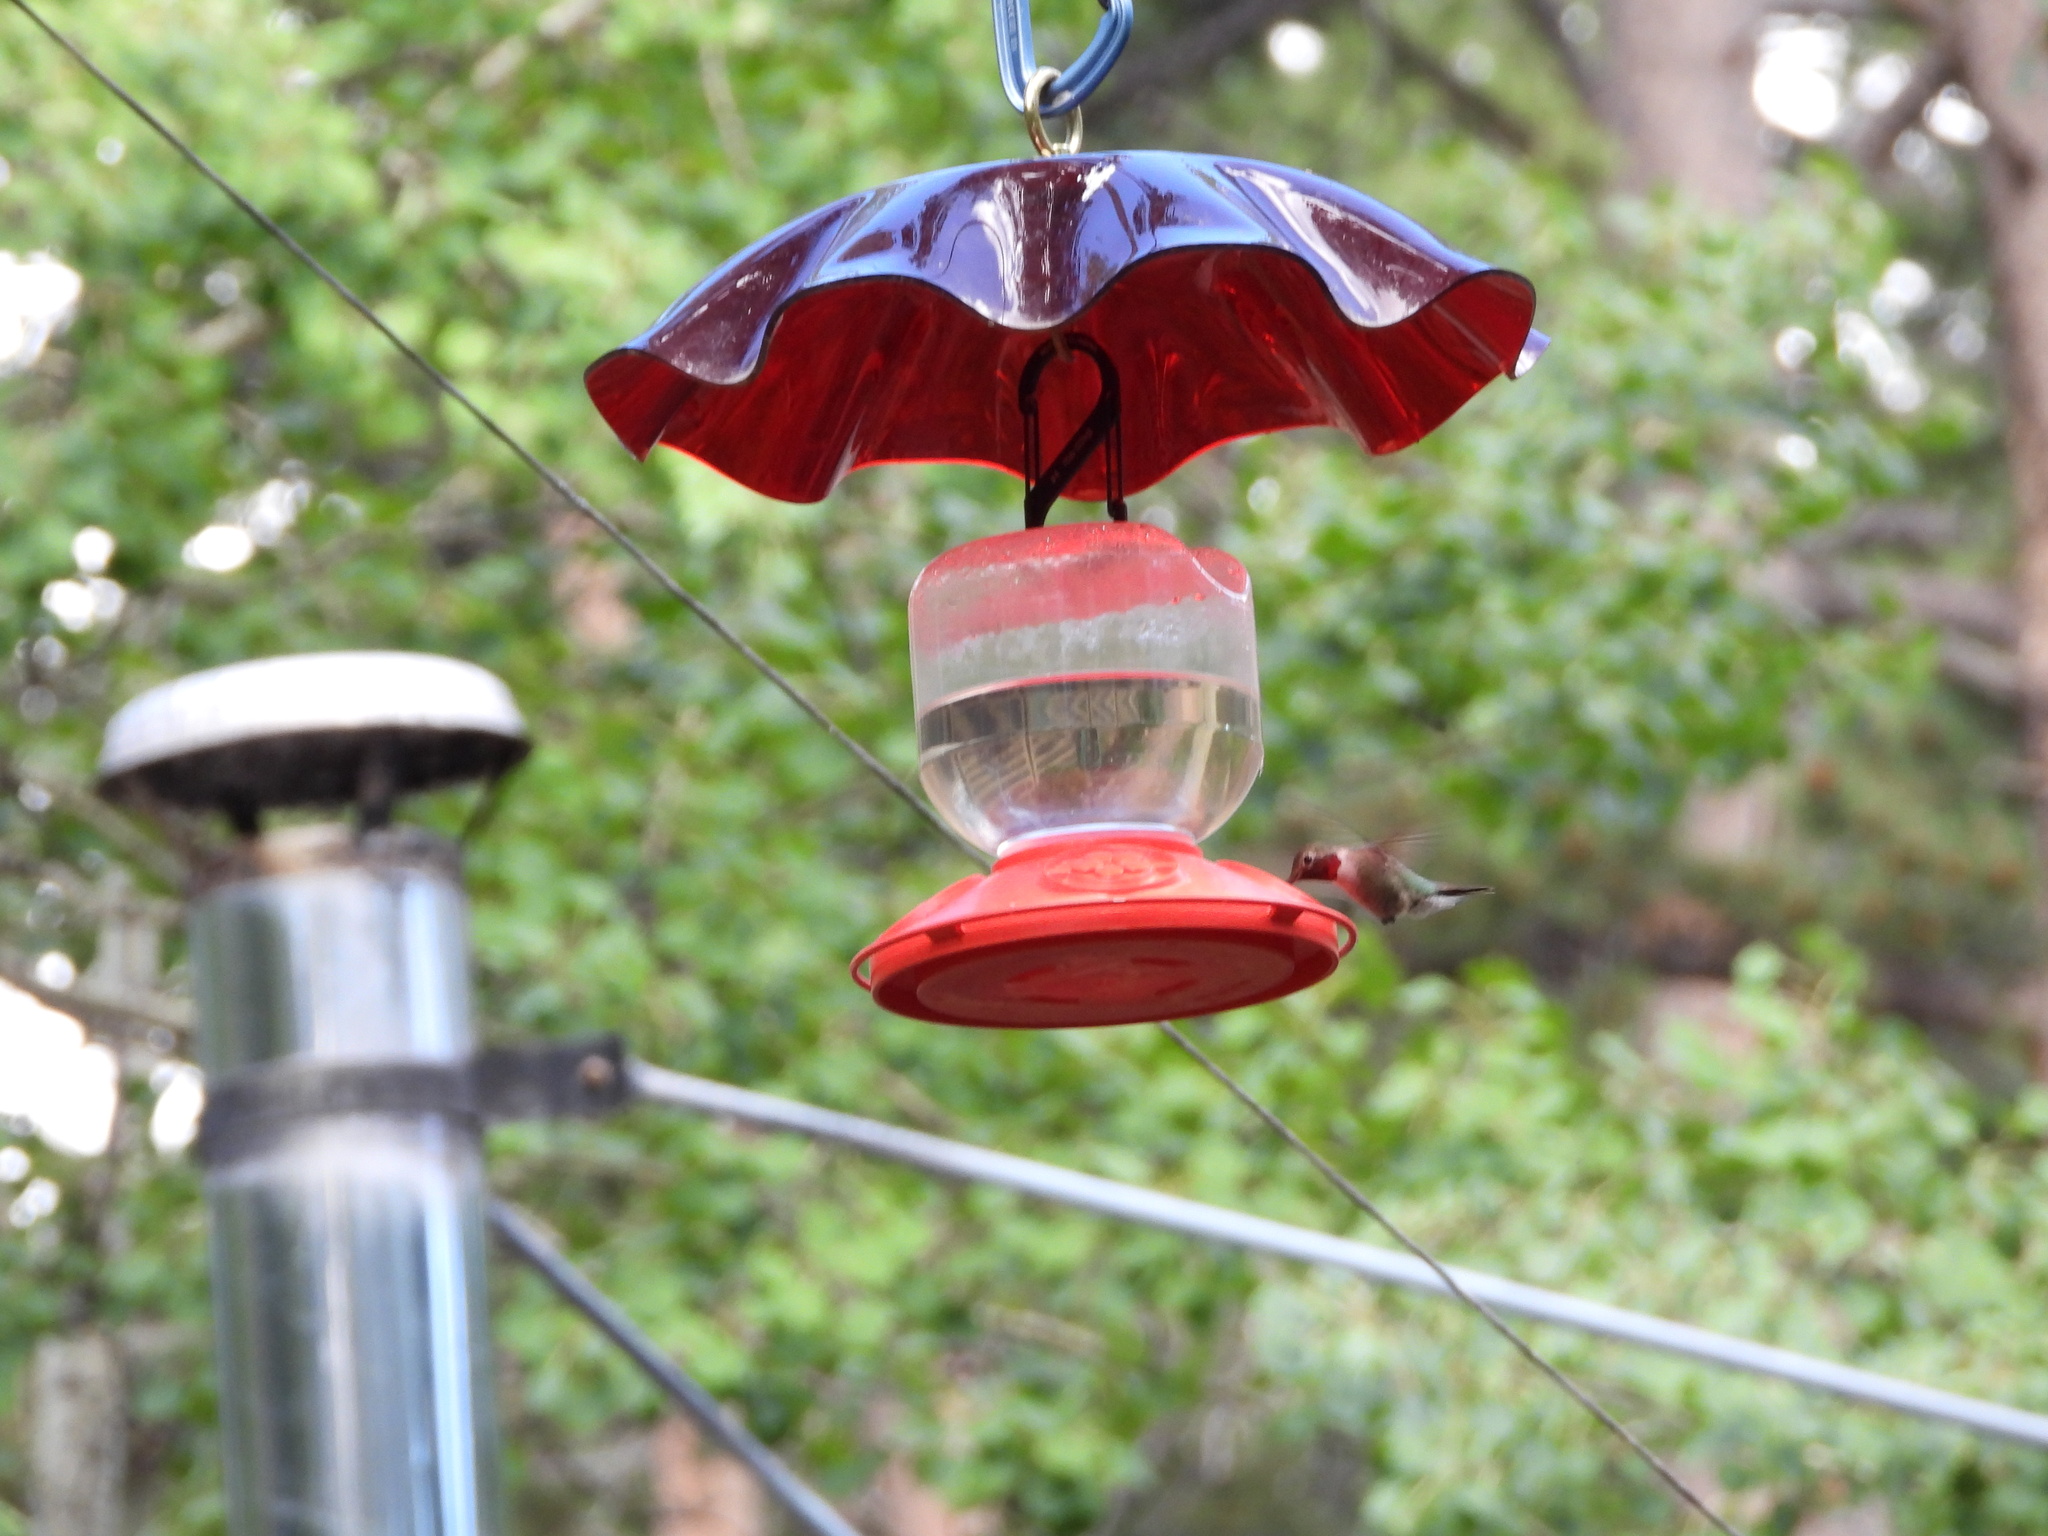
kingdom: Animalia
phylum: Chordata
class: Aves
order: Apodiformes
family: Trochilidae
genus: Selasphorus
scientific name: Selasphorus platycercus
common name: Broad-tailed hummingbird
